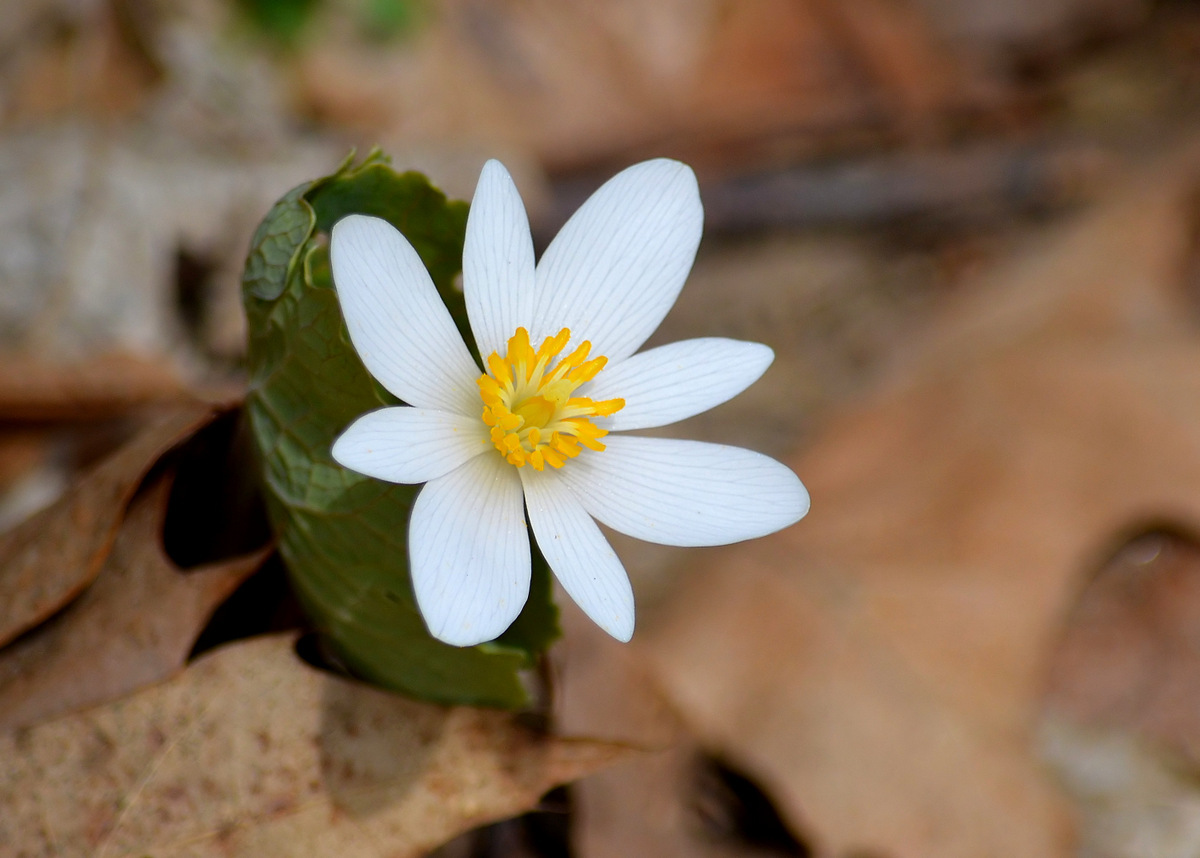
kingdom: Plantae
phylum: Tracheophyta
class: Magnoliopsida
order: Ranunculales
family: Papaveraceae
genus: Sanguinaria
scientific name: Sanguinaria canadensis
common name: Bloodroot
